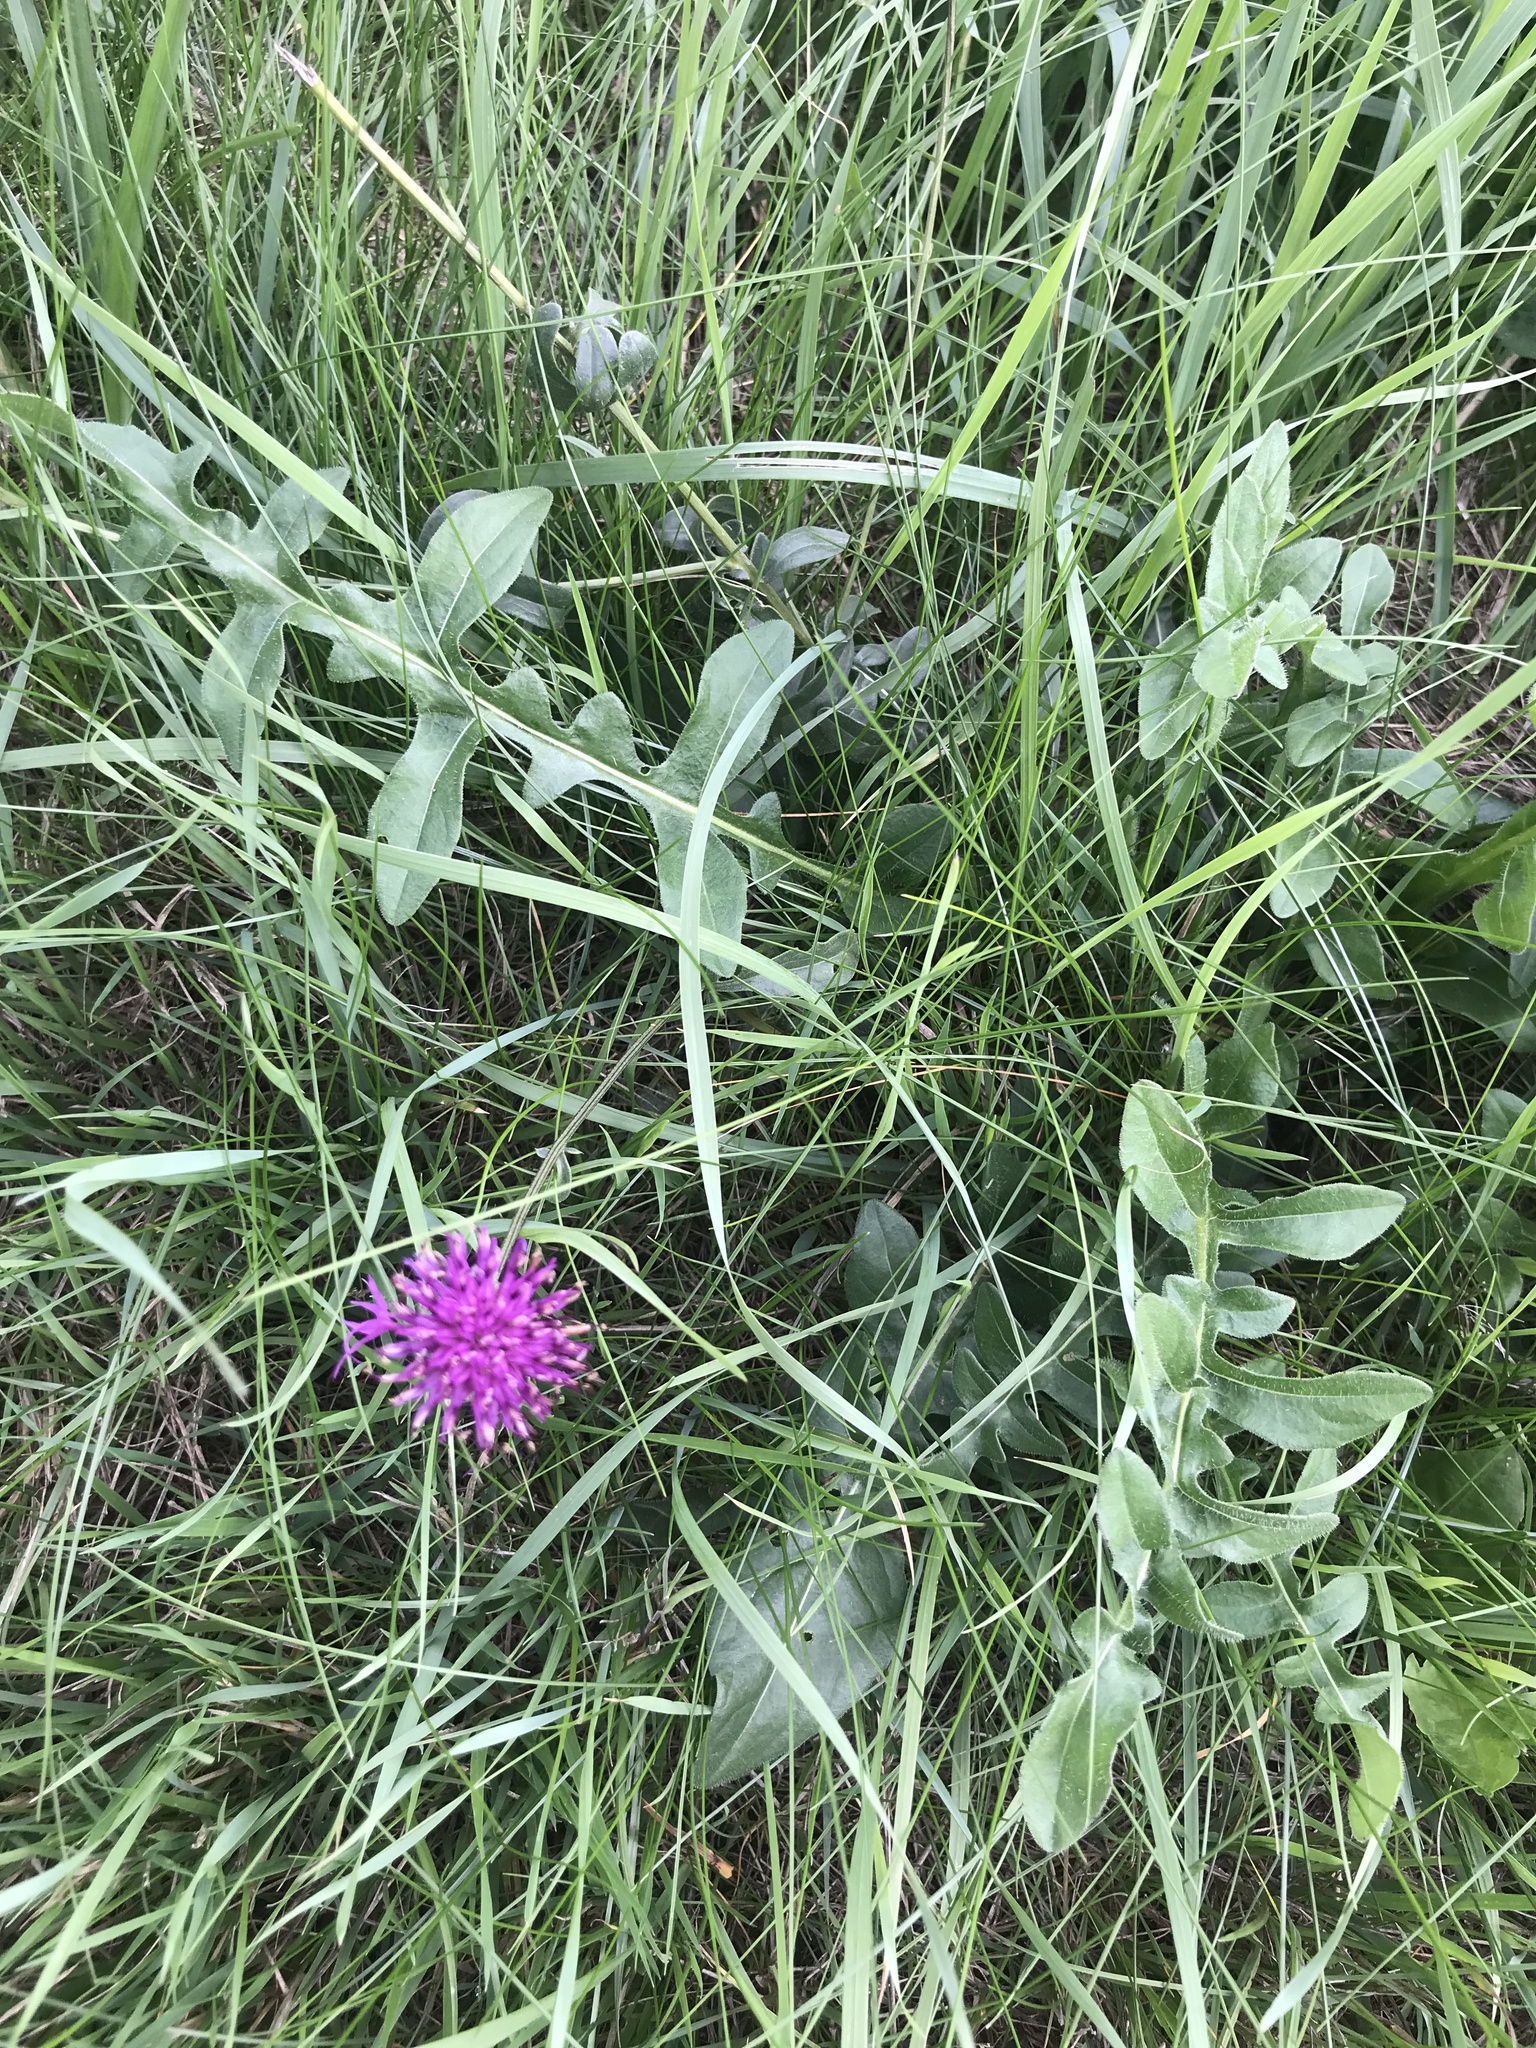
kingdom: Plantae
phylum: Tracheophyta
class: Magnoliopsida
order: Asterales
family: Asteraceae
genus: Centaurea
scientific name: Centaurea scabiosa
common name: Greater knapweed
